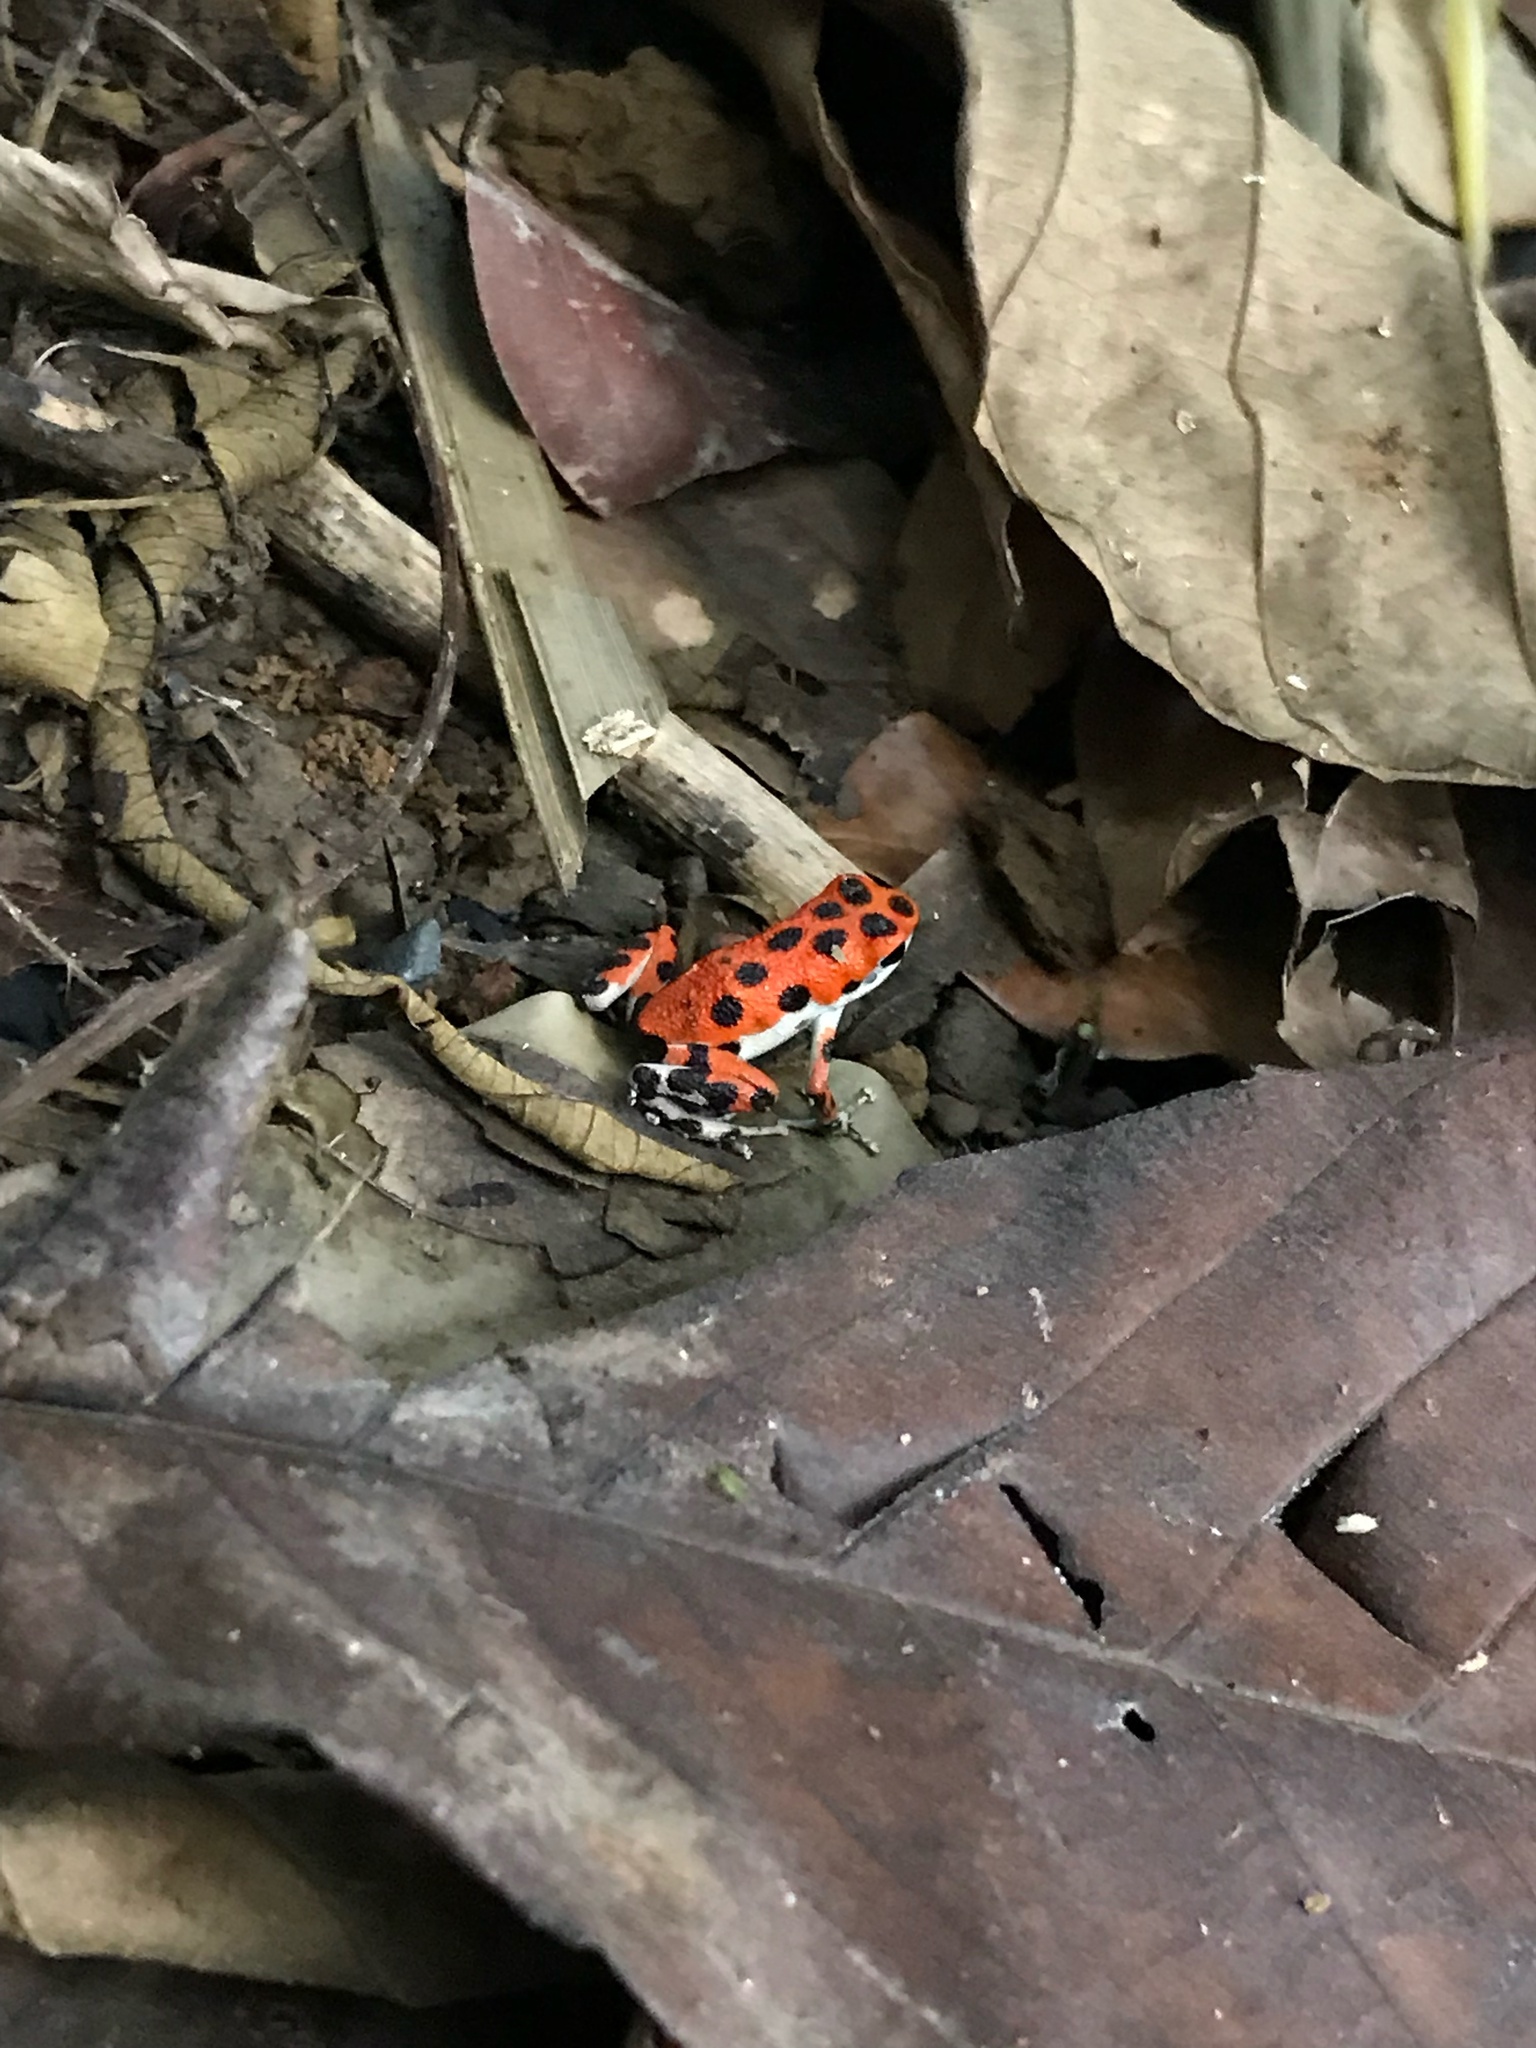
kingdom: Animalia
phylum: Chordata
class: Amphibia
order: Anura
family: Dendrobatidae
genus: Oophaga
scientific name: Oophaga pumilio
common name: Flaming poison frog
